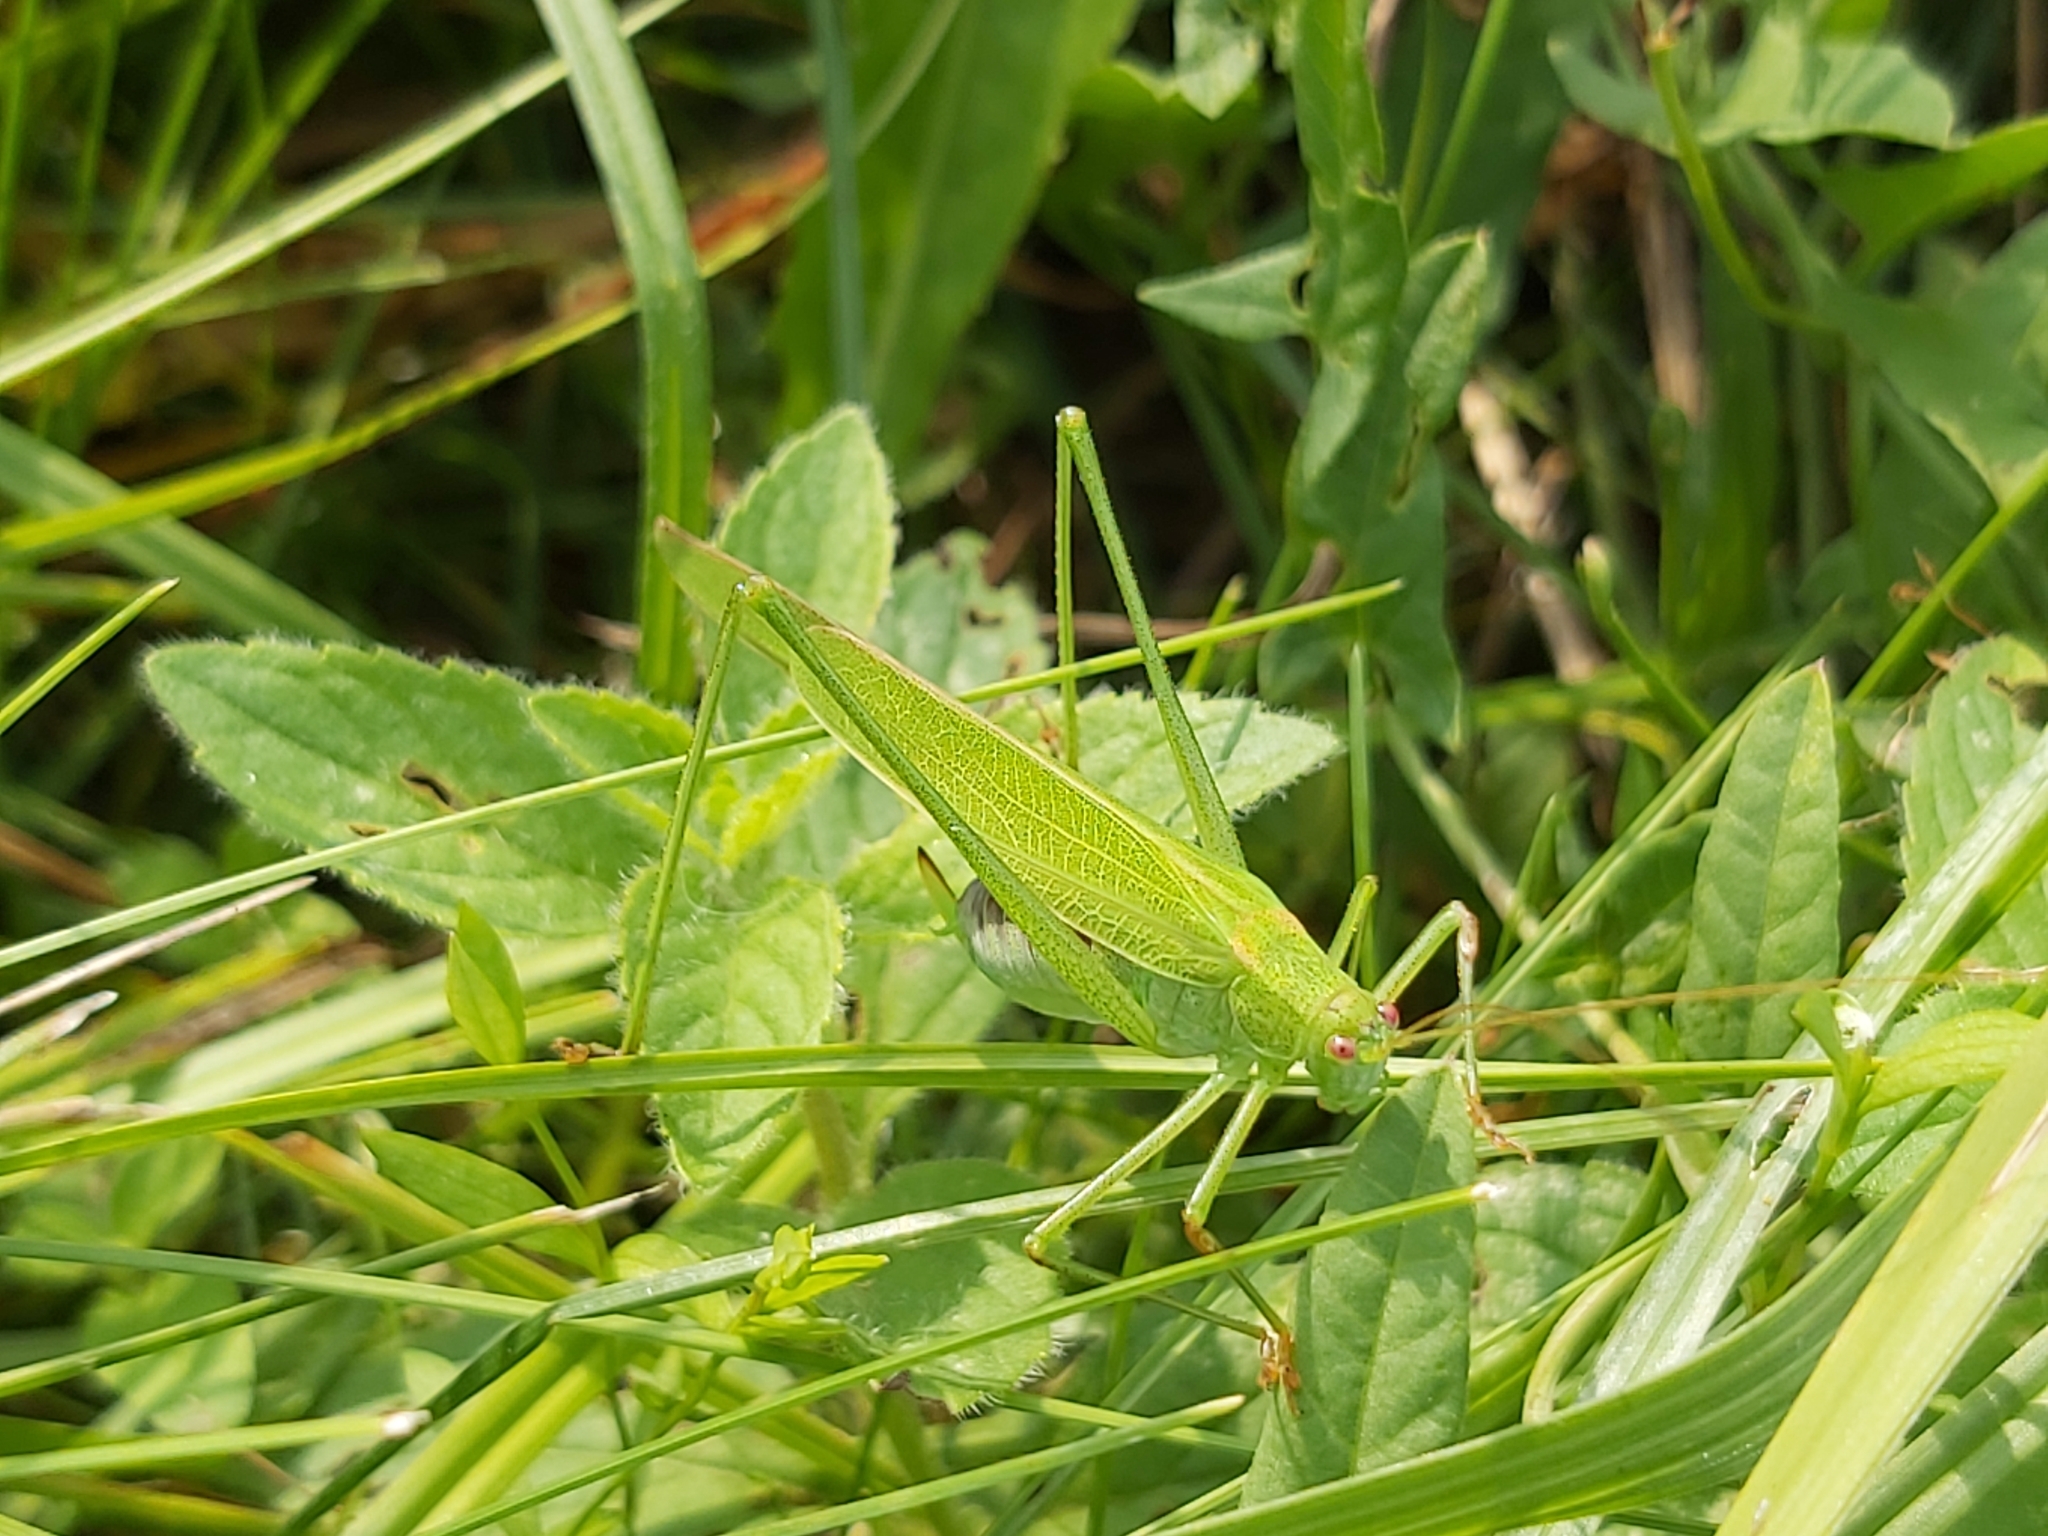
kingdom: Animalia
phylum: Arthropoda
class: Insecta
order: Orthoptera
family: Tettigoniidae
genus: Phaneroptera
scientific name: Phaneroptera falcata
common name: Sickle-bearing bush-cricket
